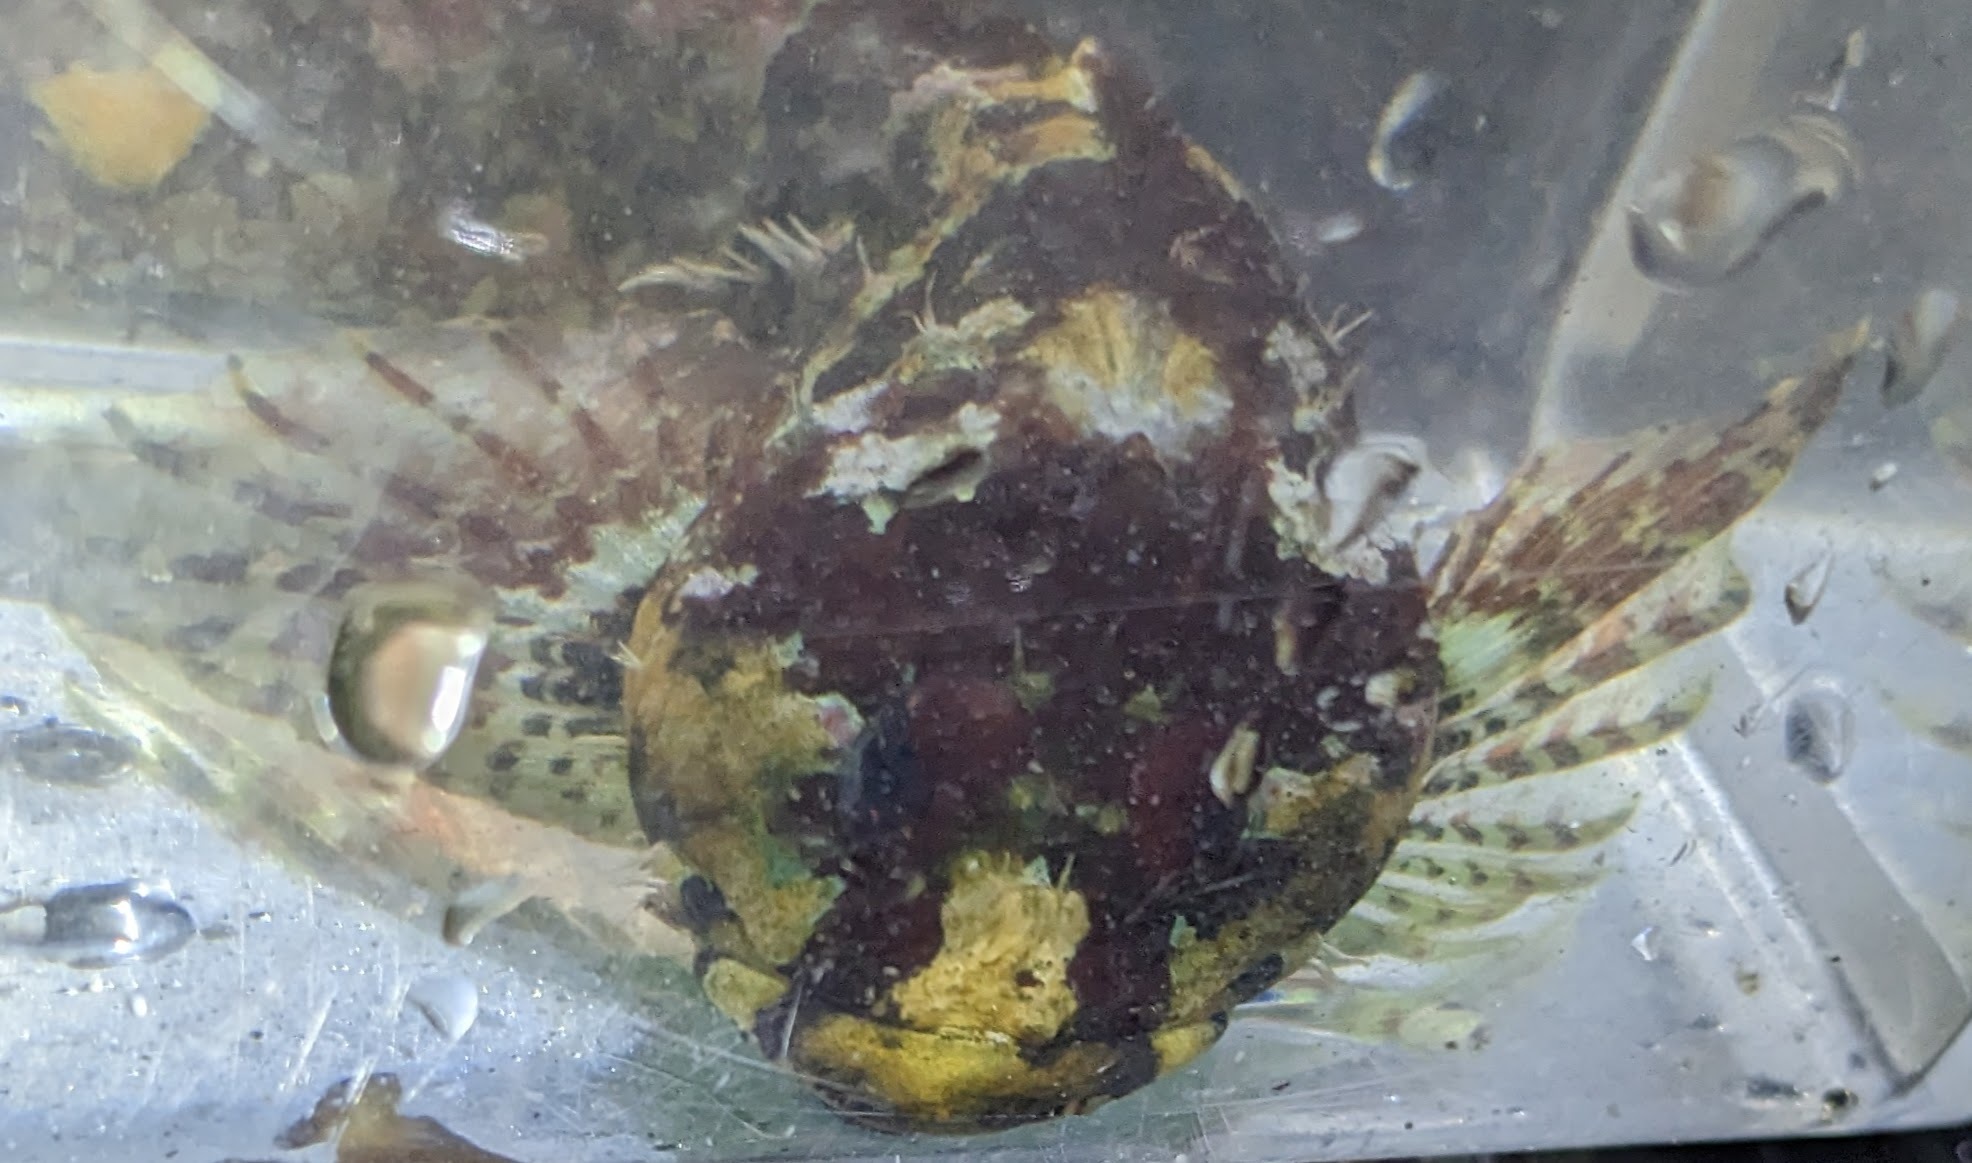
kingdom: Animalia
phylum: Chordata
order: Scorpaeniformes
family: Cottidae
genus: Artedius
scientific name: Artedius lateralis
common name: Smooth-head sculpin
